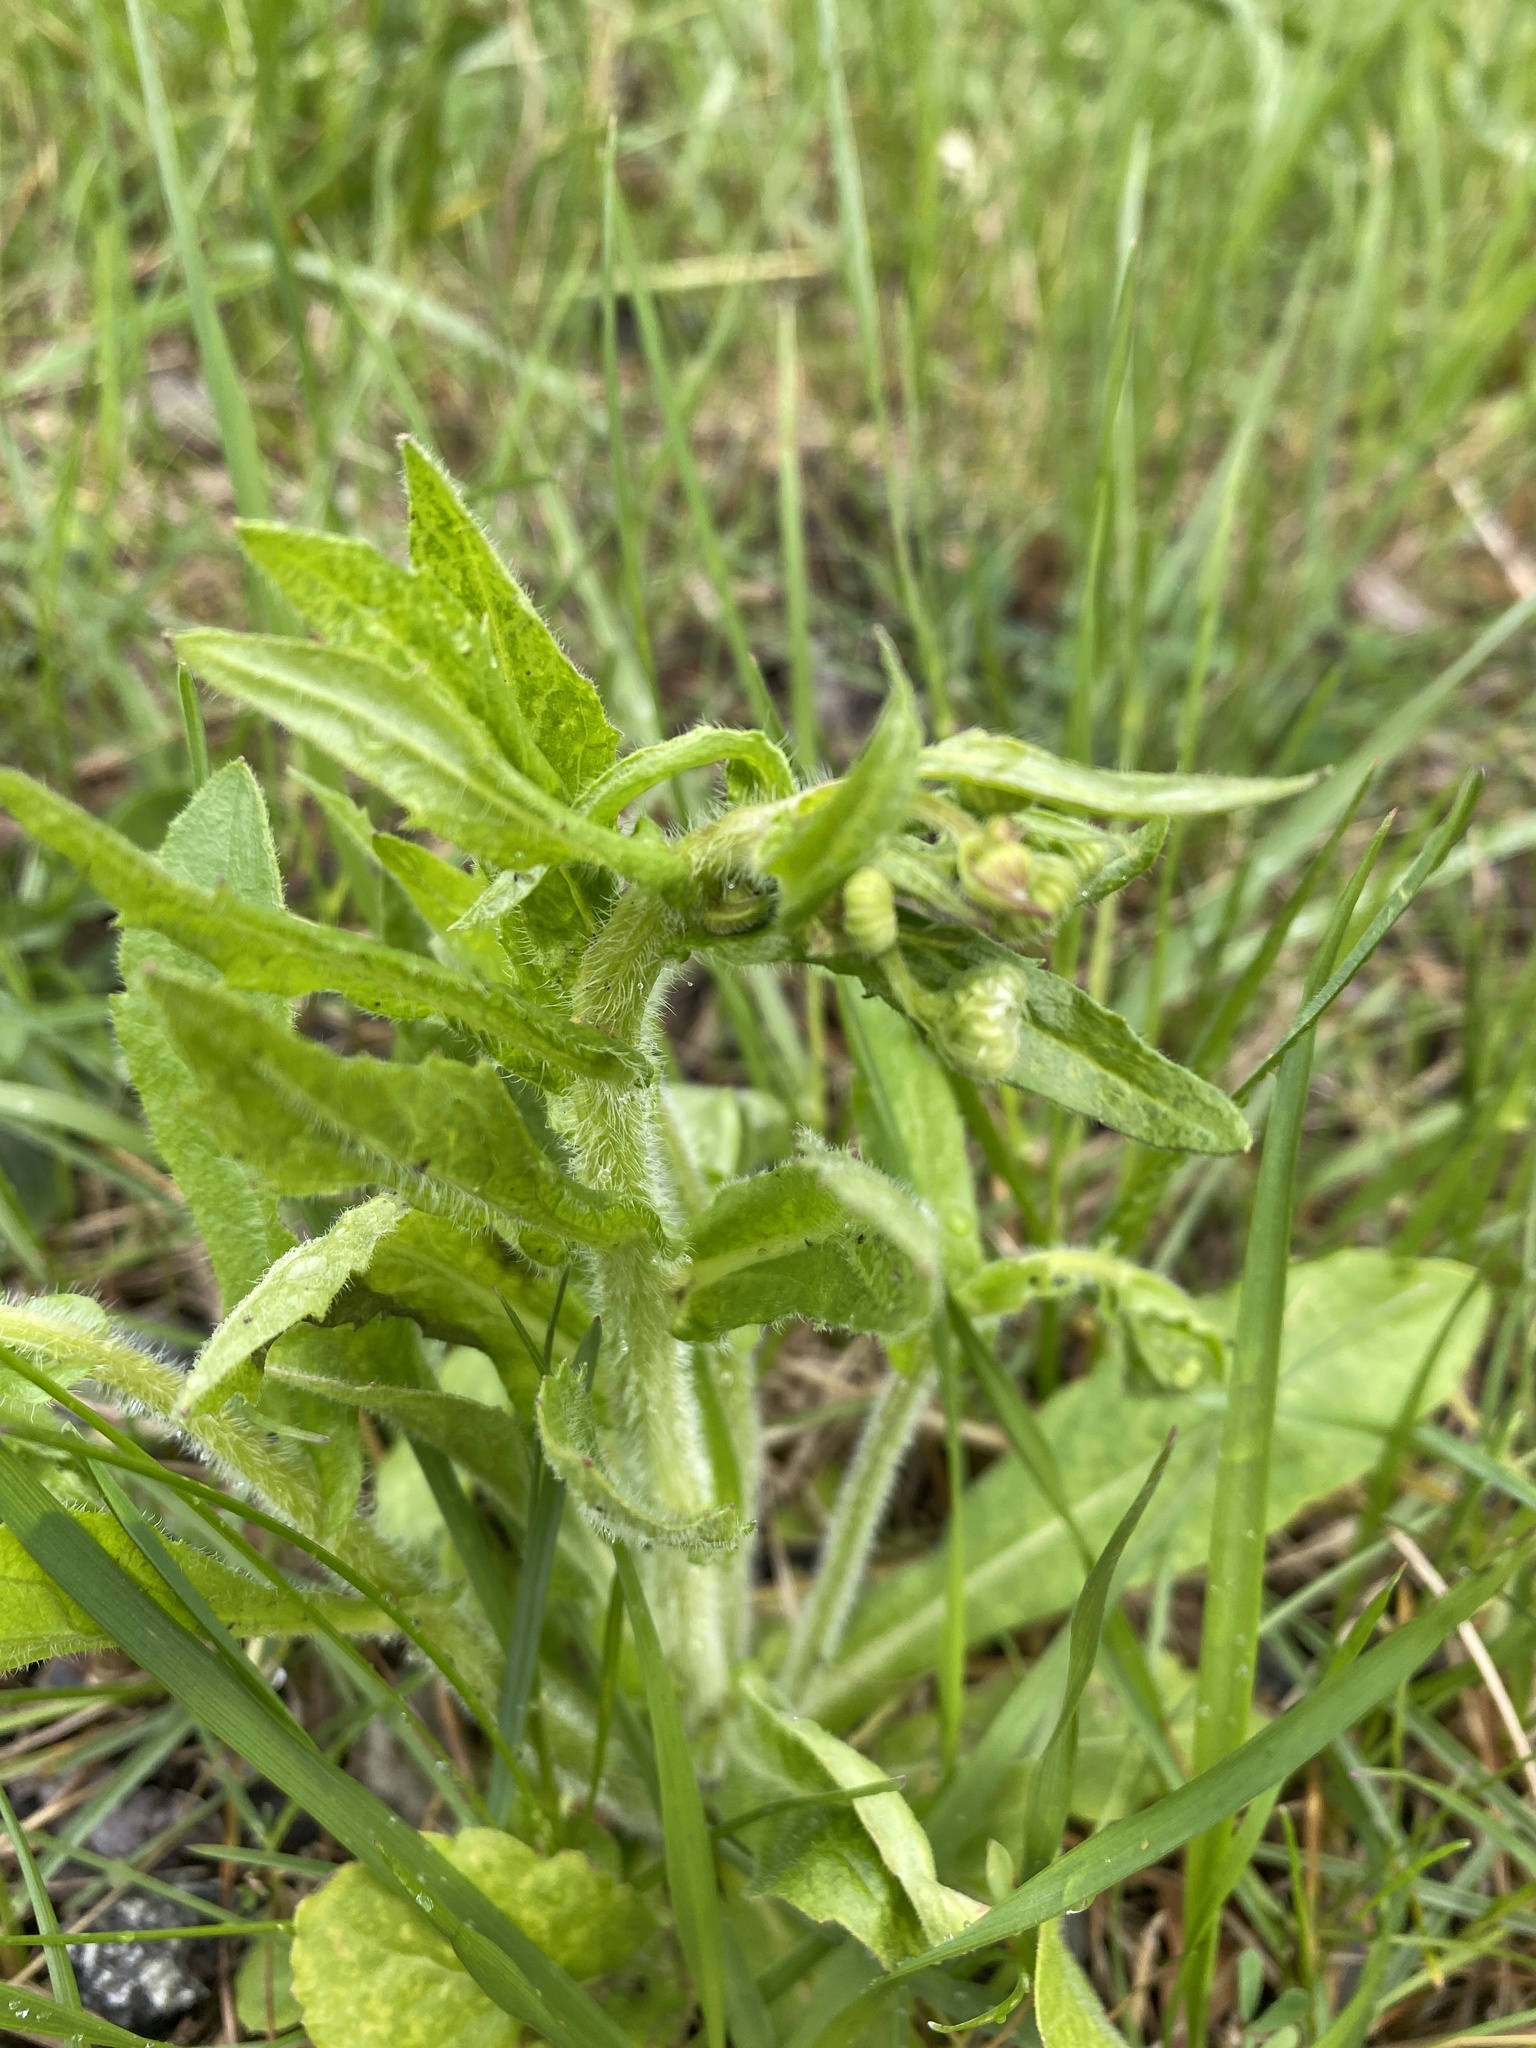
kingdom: Plantae
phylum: Tracheophyta
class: Magnoliopsida
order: Asterales
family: Asteraceae
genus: Erigeron
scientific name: Erigeron philadelphicus
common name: Robin's-plantain
